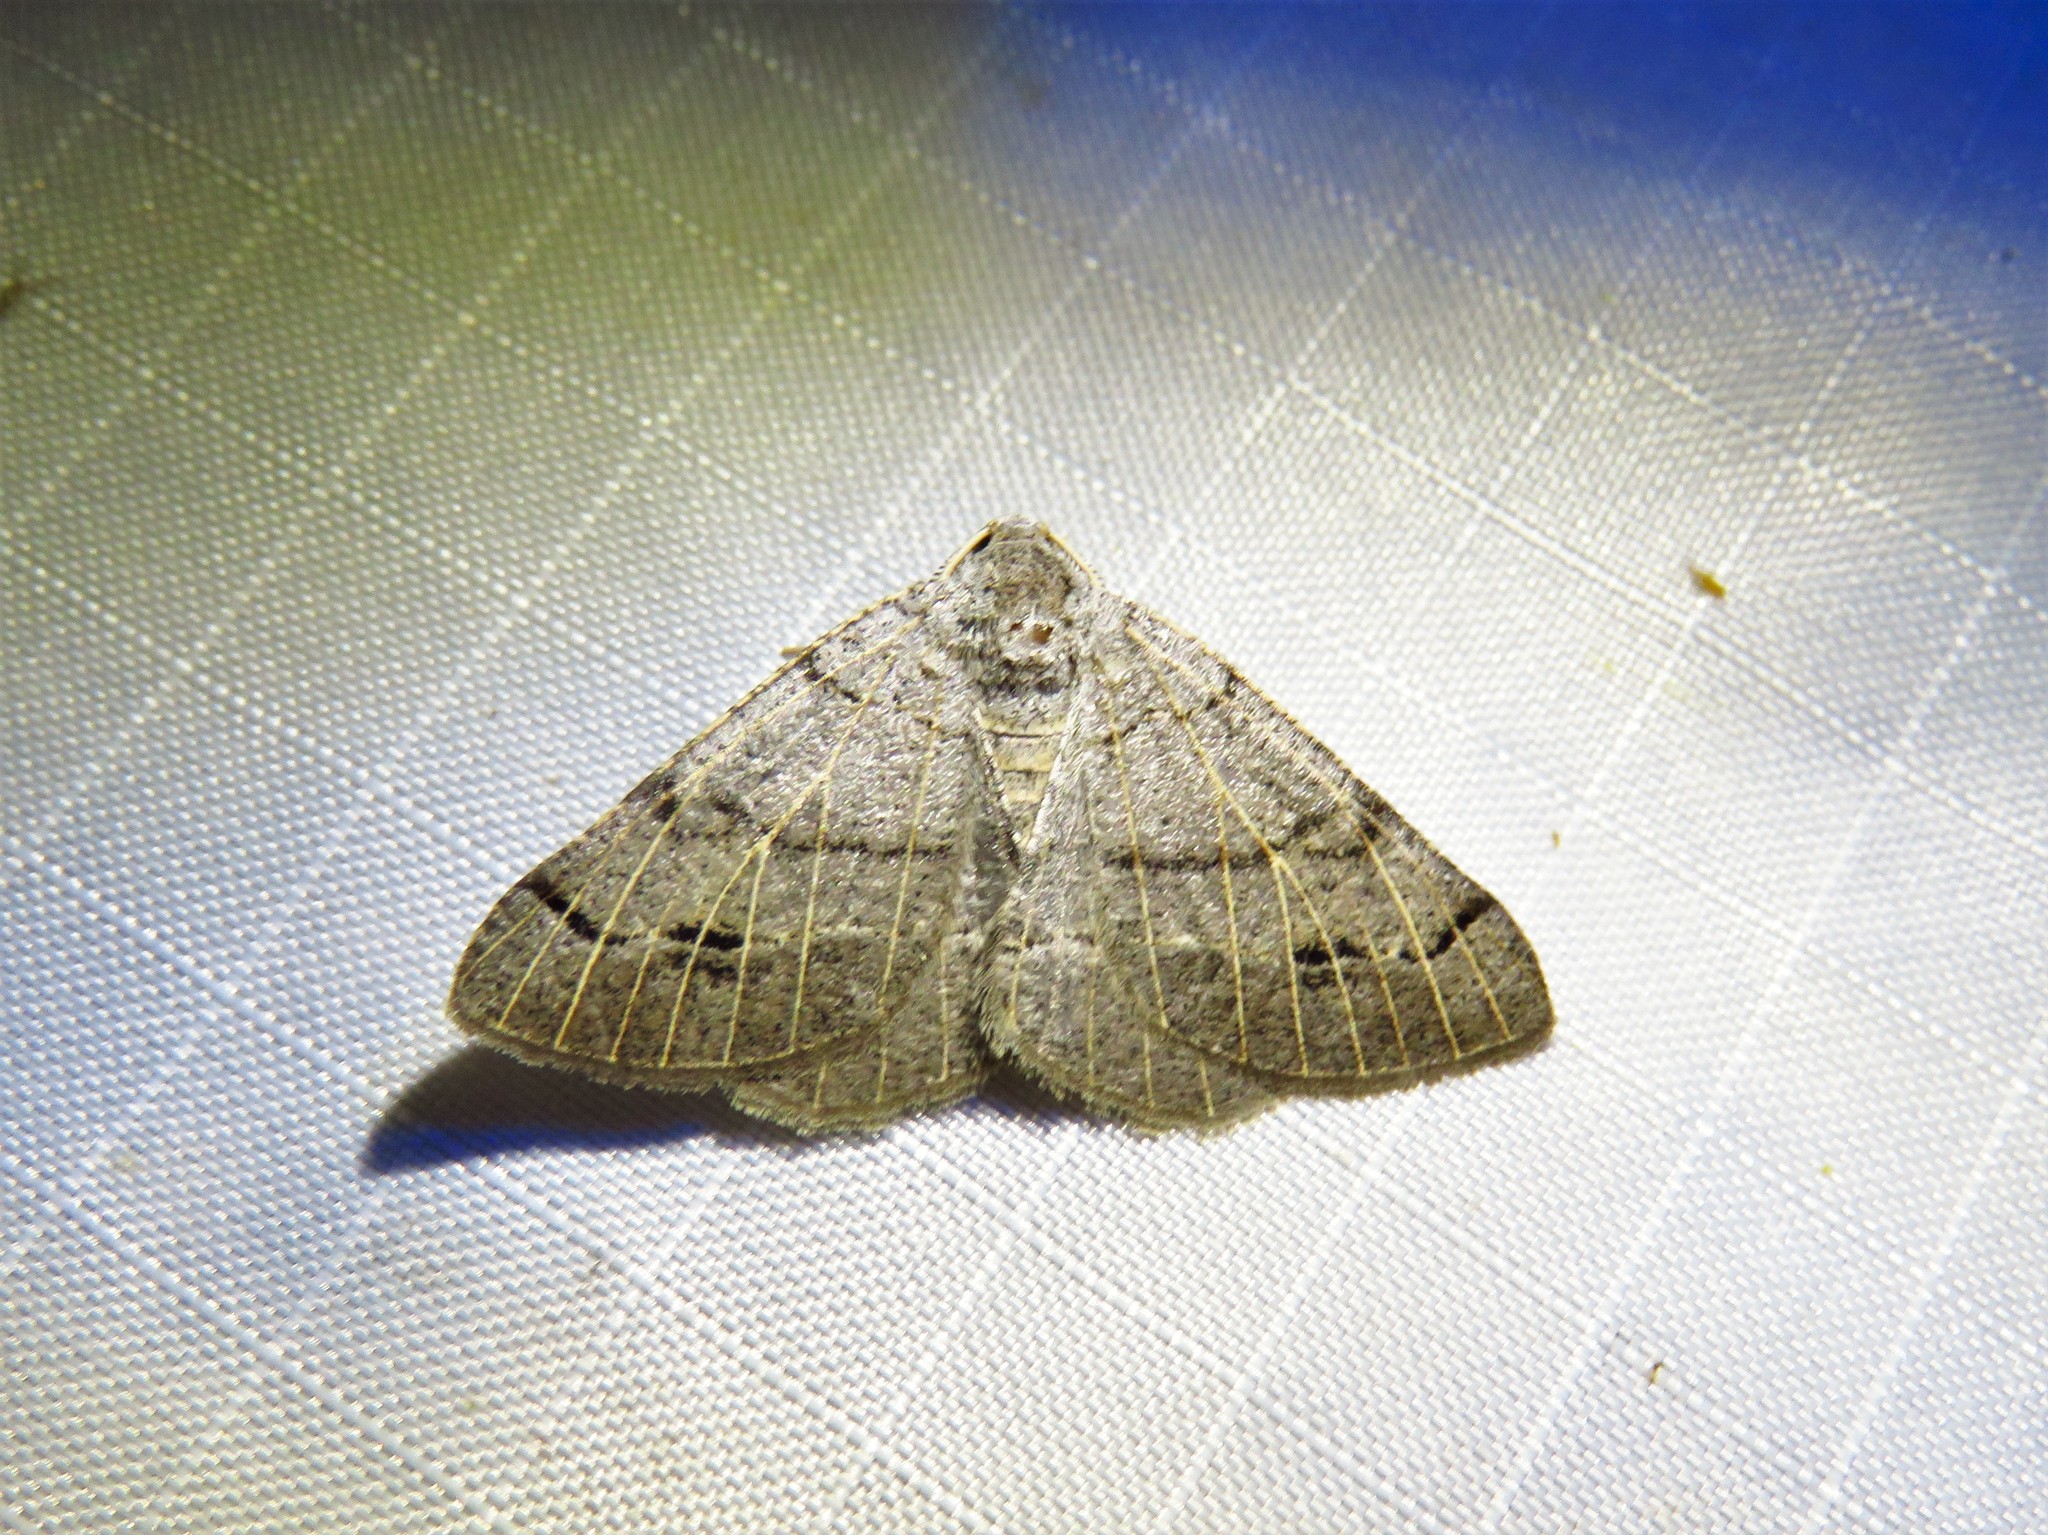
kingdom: Animalia
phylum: Arthropoda
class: Insecta
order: Lepidoptera
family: Geometridae
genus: Isturgia
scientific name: Isturgia dislocaria
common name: Pale-viened enconista
